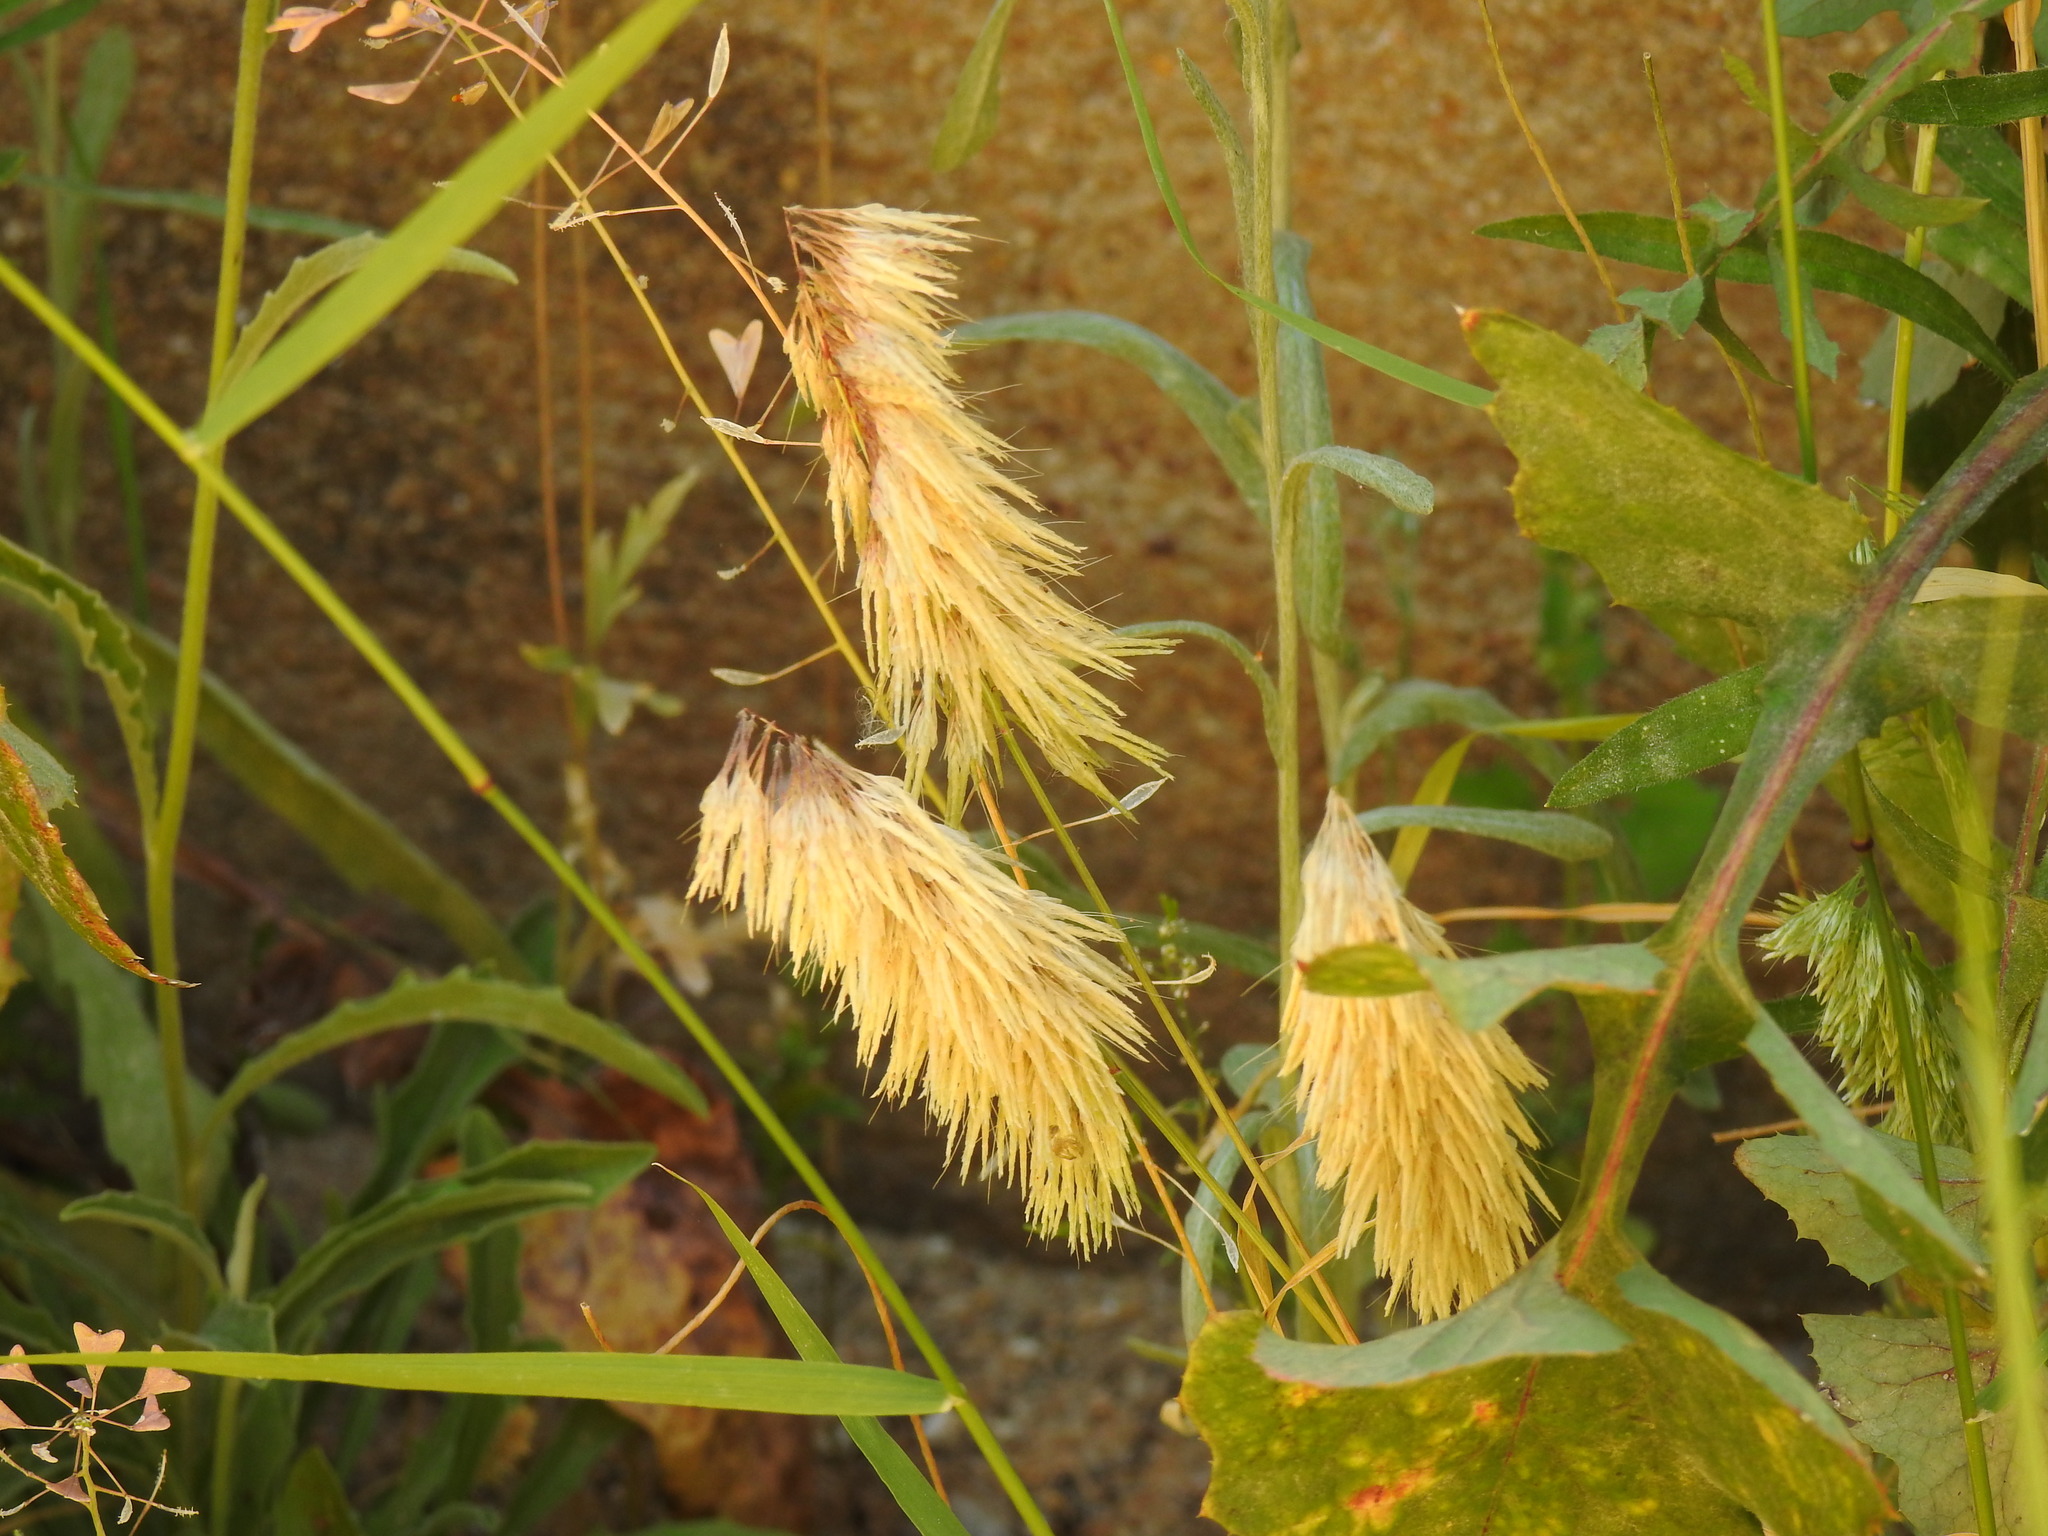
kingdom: Plantae
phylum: Tracheophyta
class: Liliopsida
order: Poales
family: Poaceae
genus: Lamarckia
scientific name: Lamarckia aurea
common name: Golden dog's-tail
